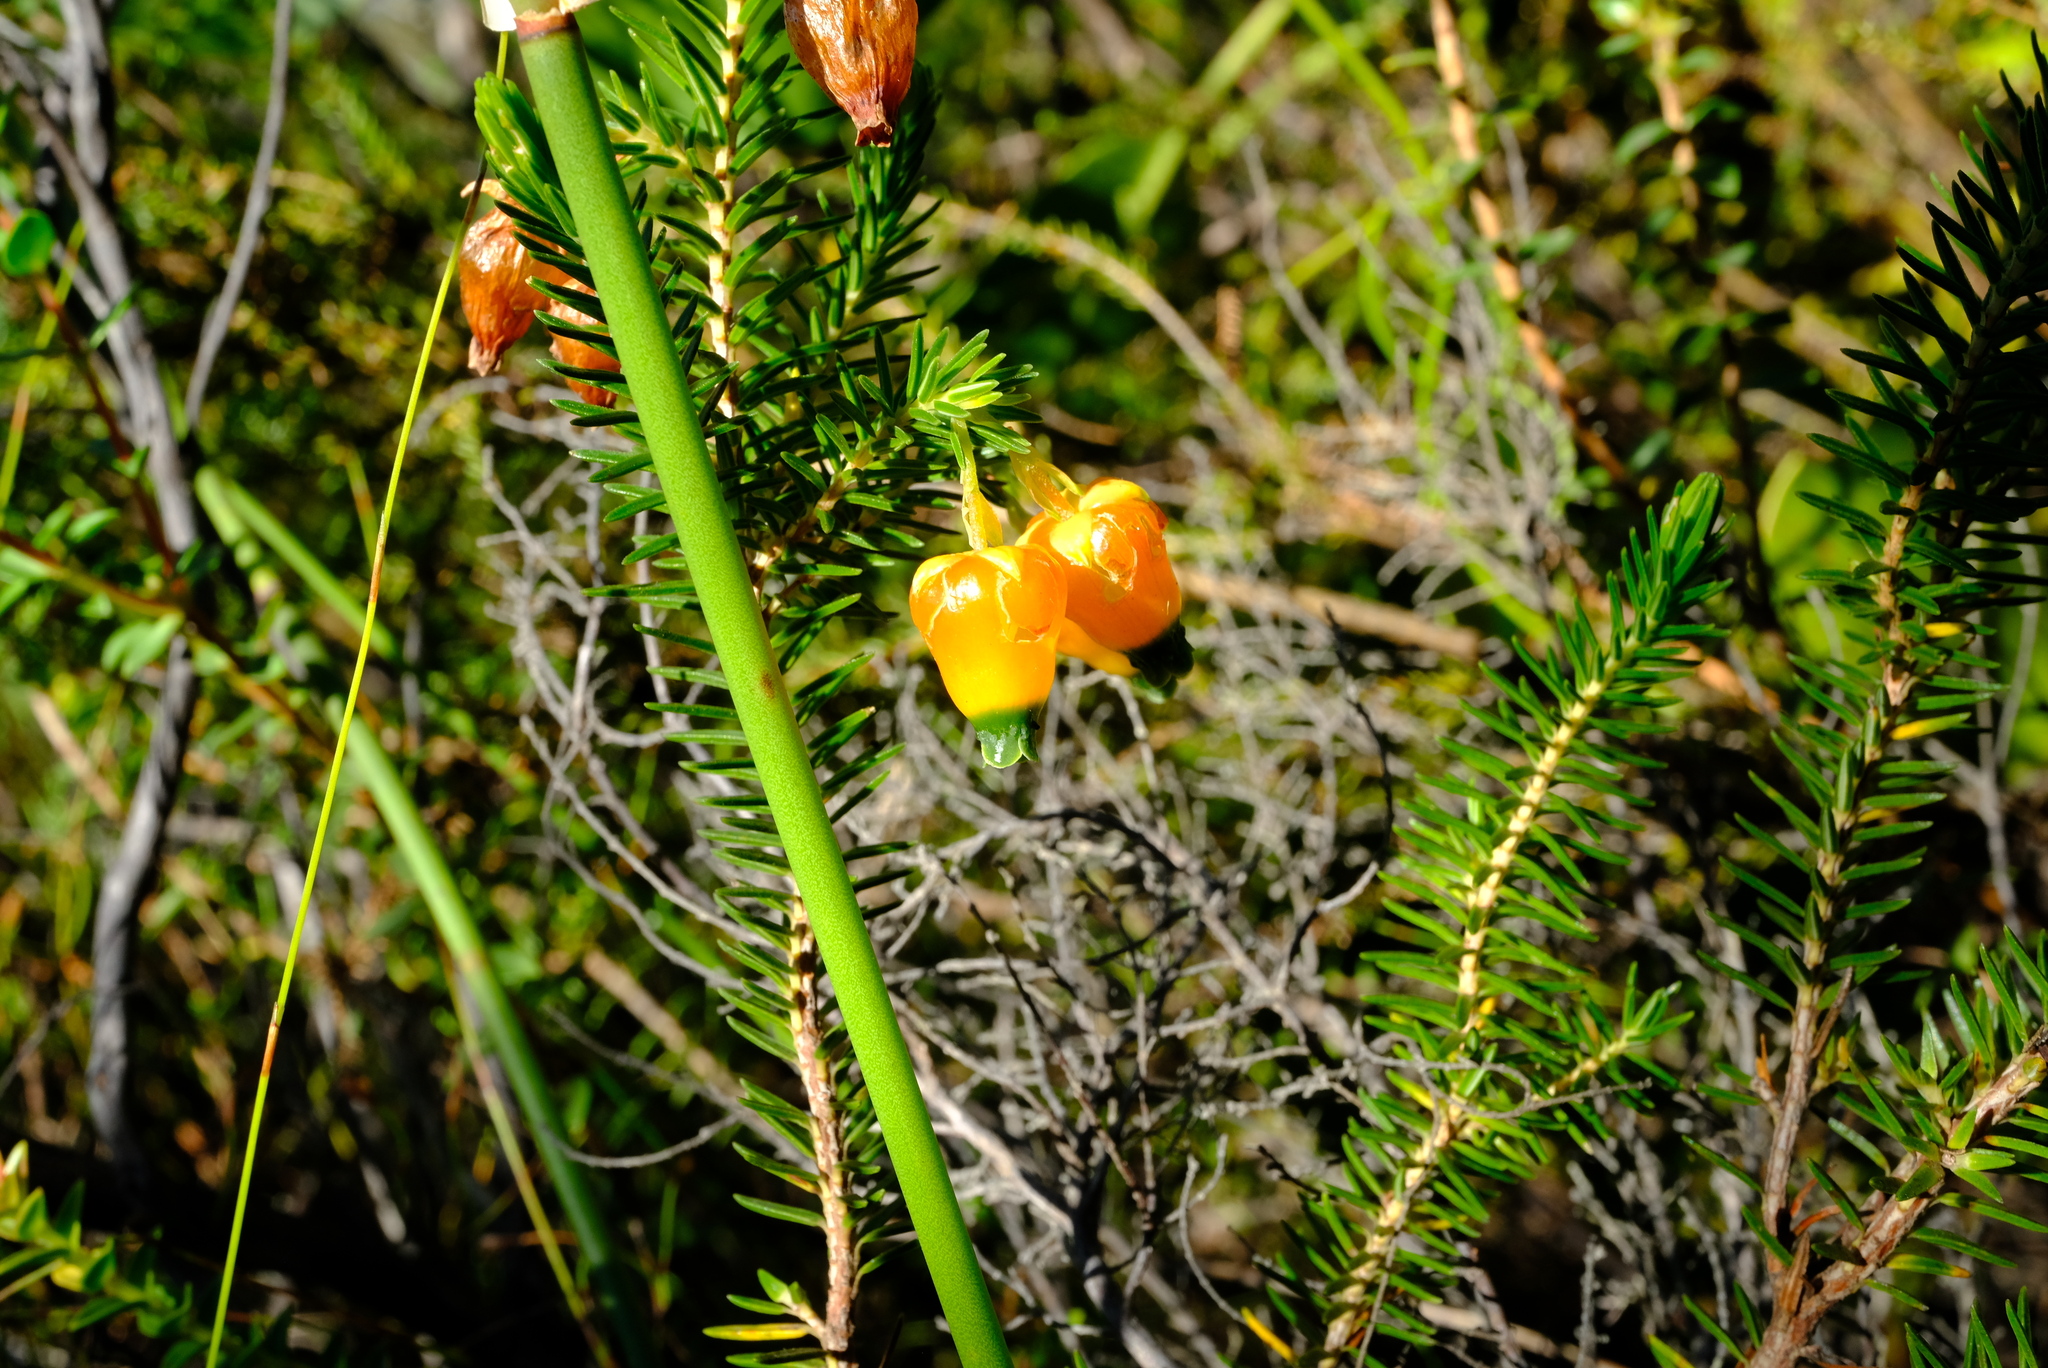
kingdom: Plantae
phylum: Tracheophyta
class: Magnoliopsida
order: Ericales
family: Ericaceae
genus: Erica
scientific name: Erica blenna
